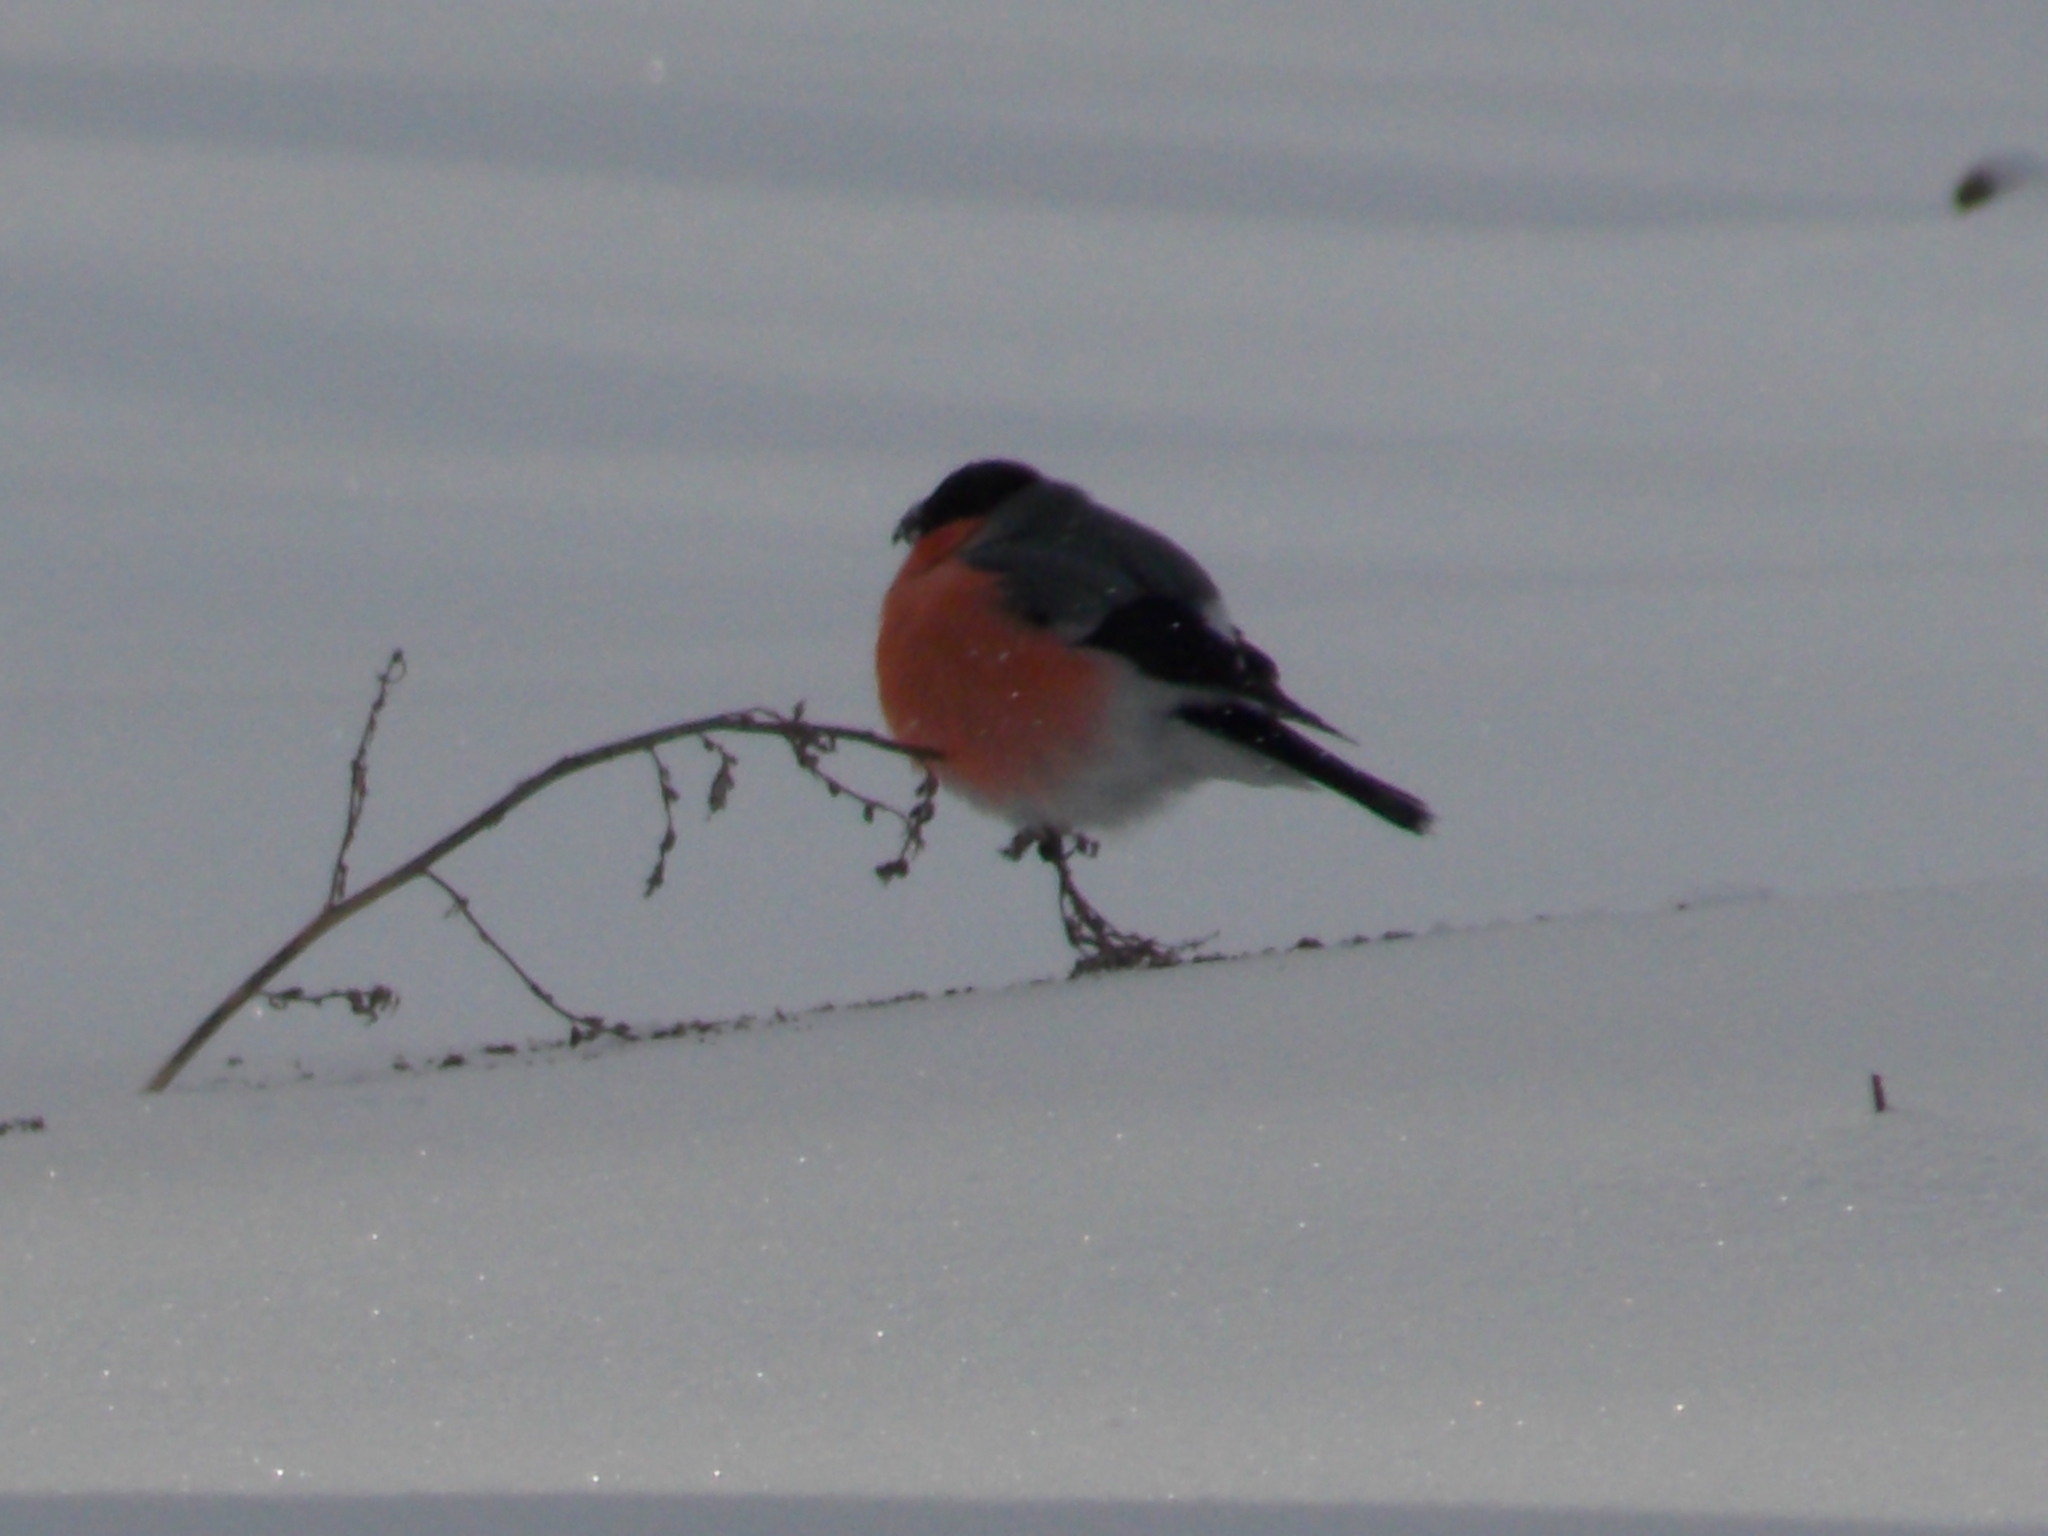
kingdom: Animalia
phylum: Chordata
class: Aves
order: Passeriformes
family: Fringillidae
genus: Pyrrhula
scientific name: Pyrrhula pyrrhula
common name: Eurasian bullfinch
